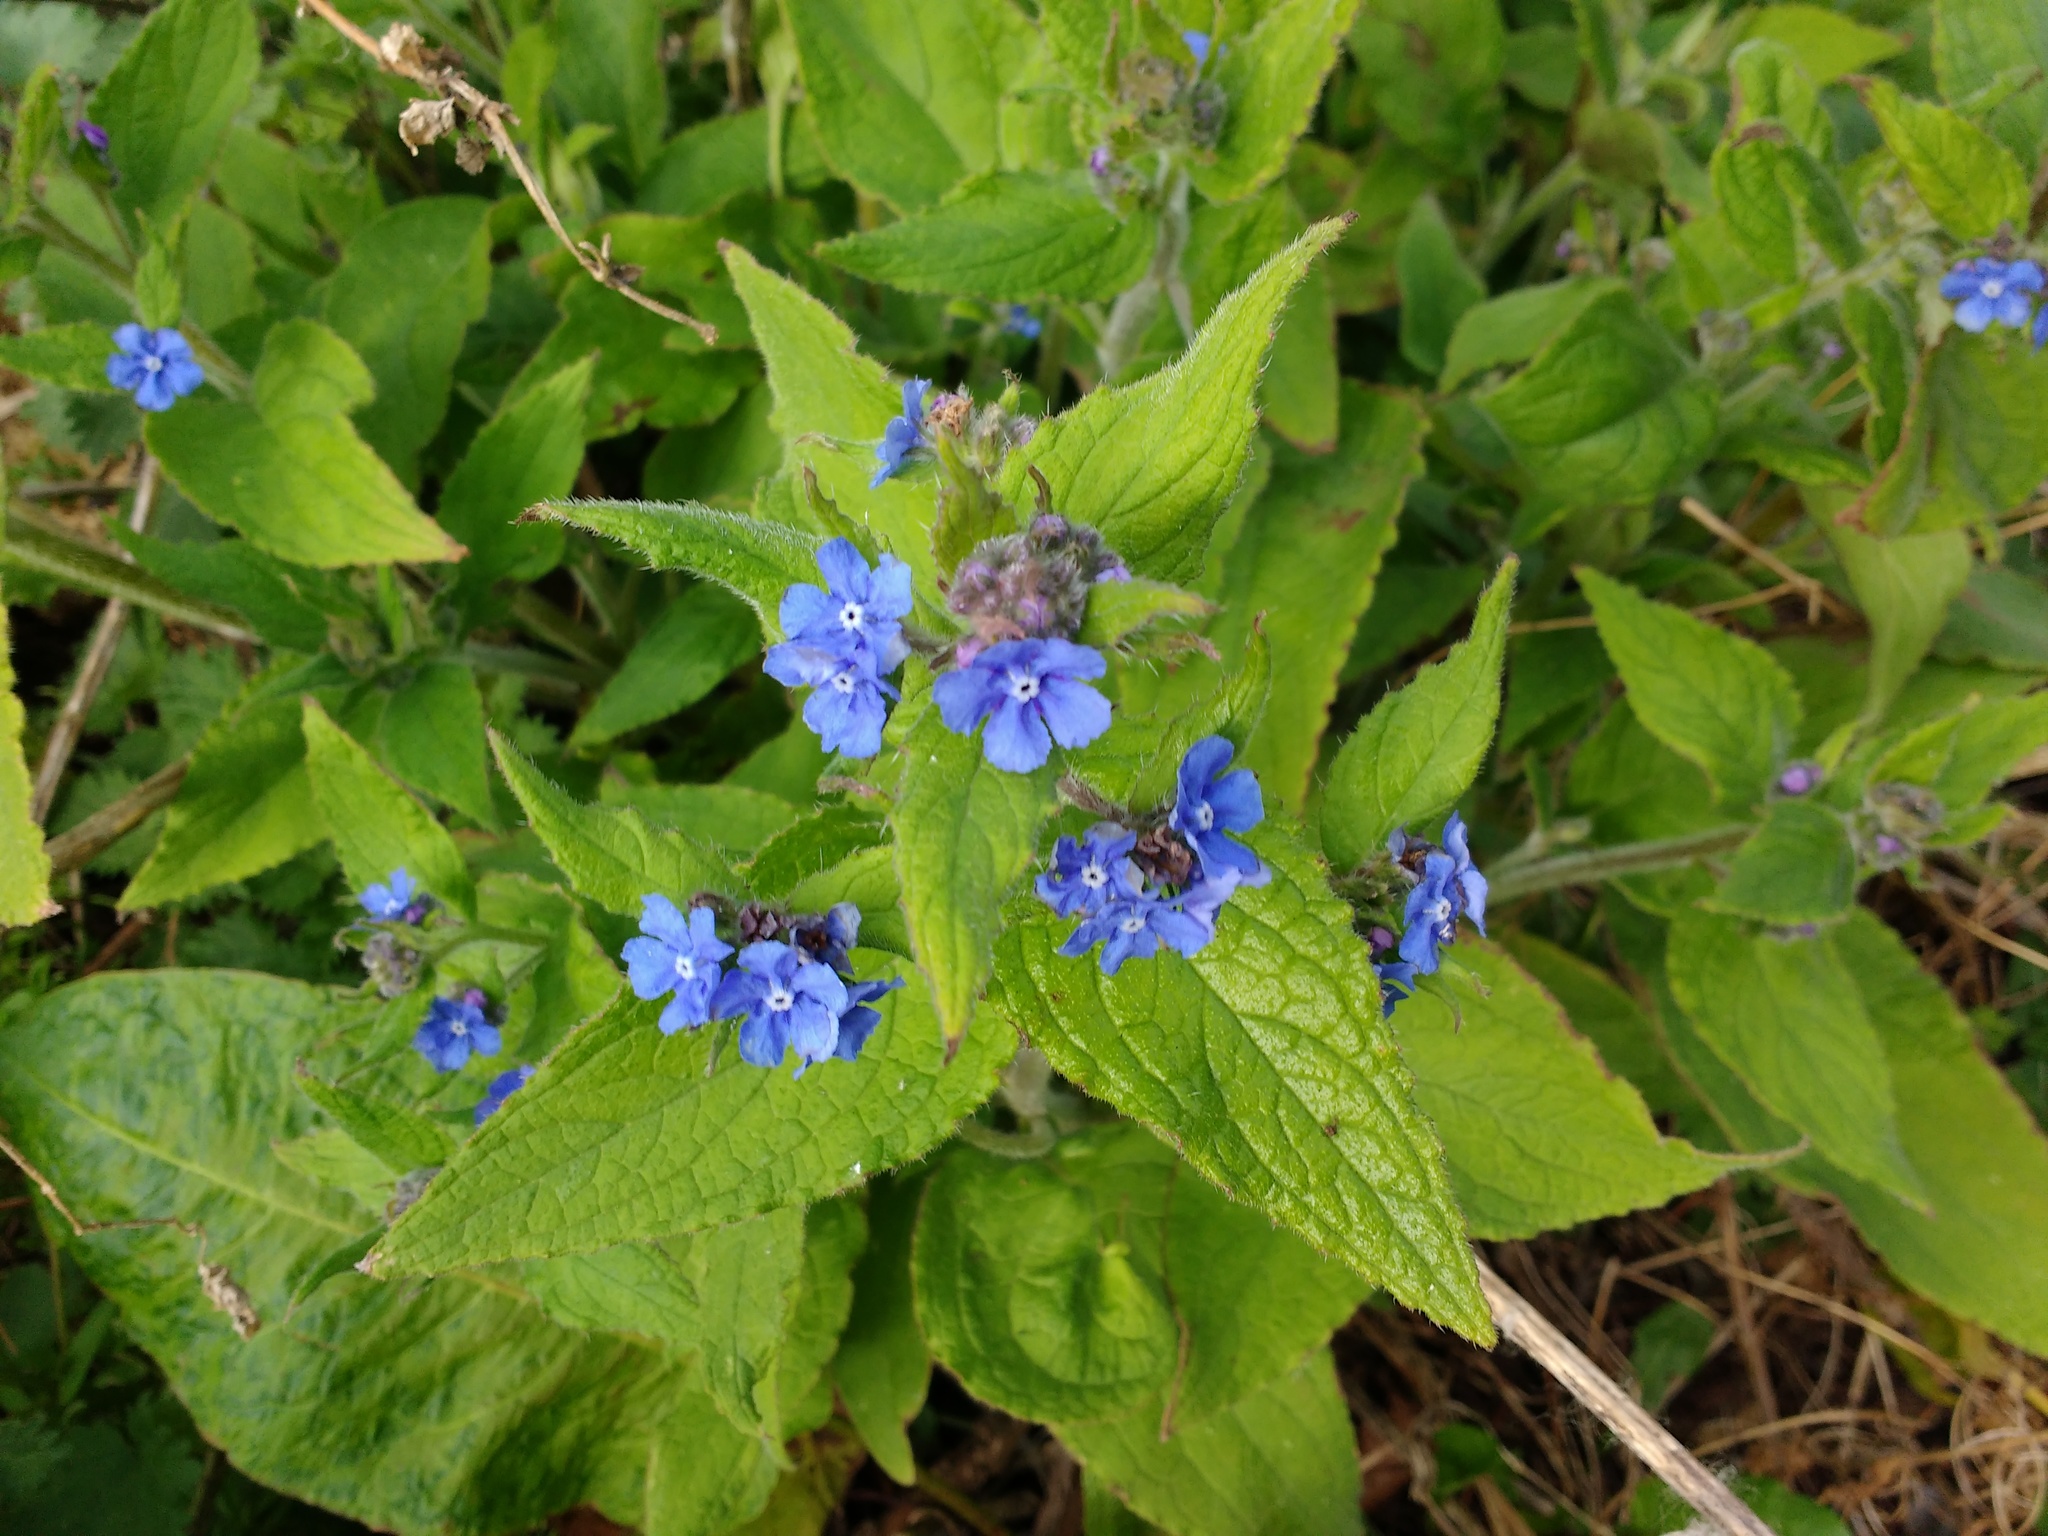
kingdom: Plantae
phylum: Tracheophyta
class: Magnoliopsida
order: Boraginales
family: Boraginaceae
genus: Pentaglottis
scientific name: Pentaglottis sempervirens
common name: Green alkanet
